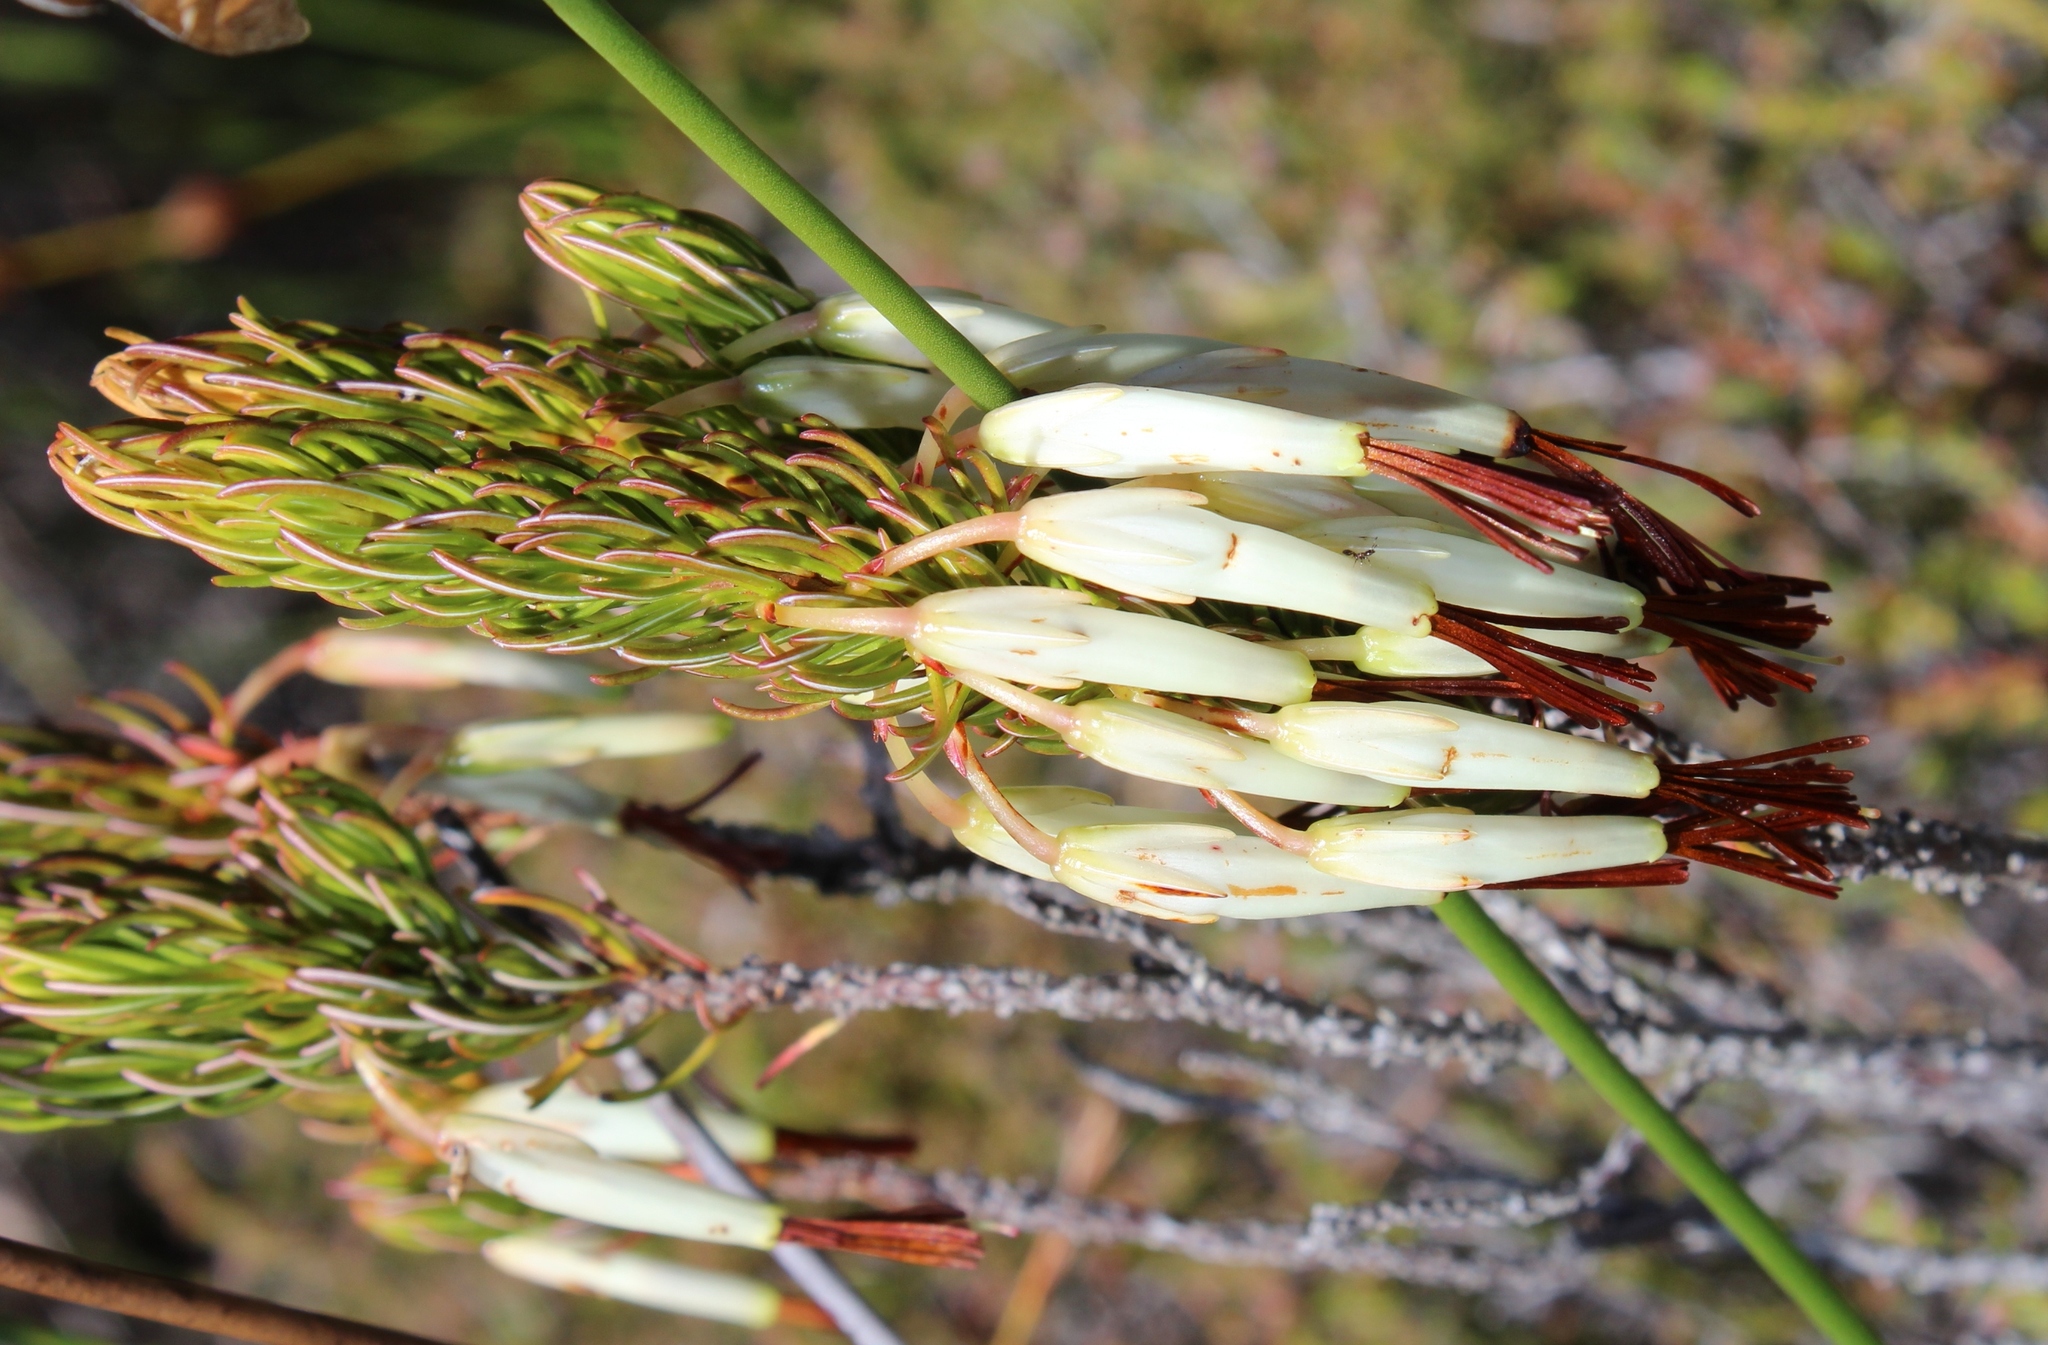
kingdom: Plantae
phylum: Tracheophyta
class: Magnoliopsida
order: Ericales
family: Ericaceae
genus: Erica
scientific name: Erica plukenetii
